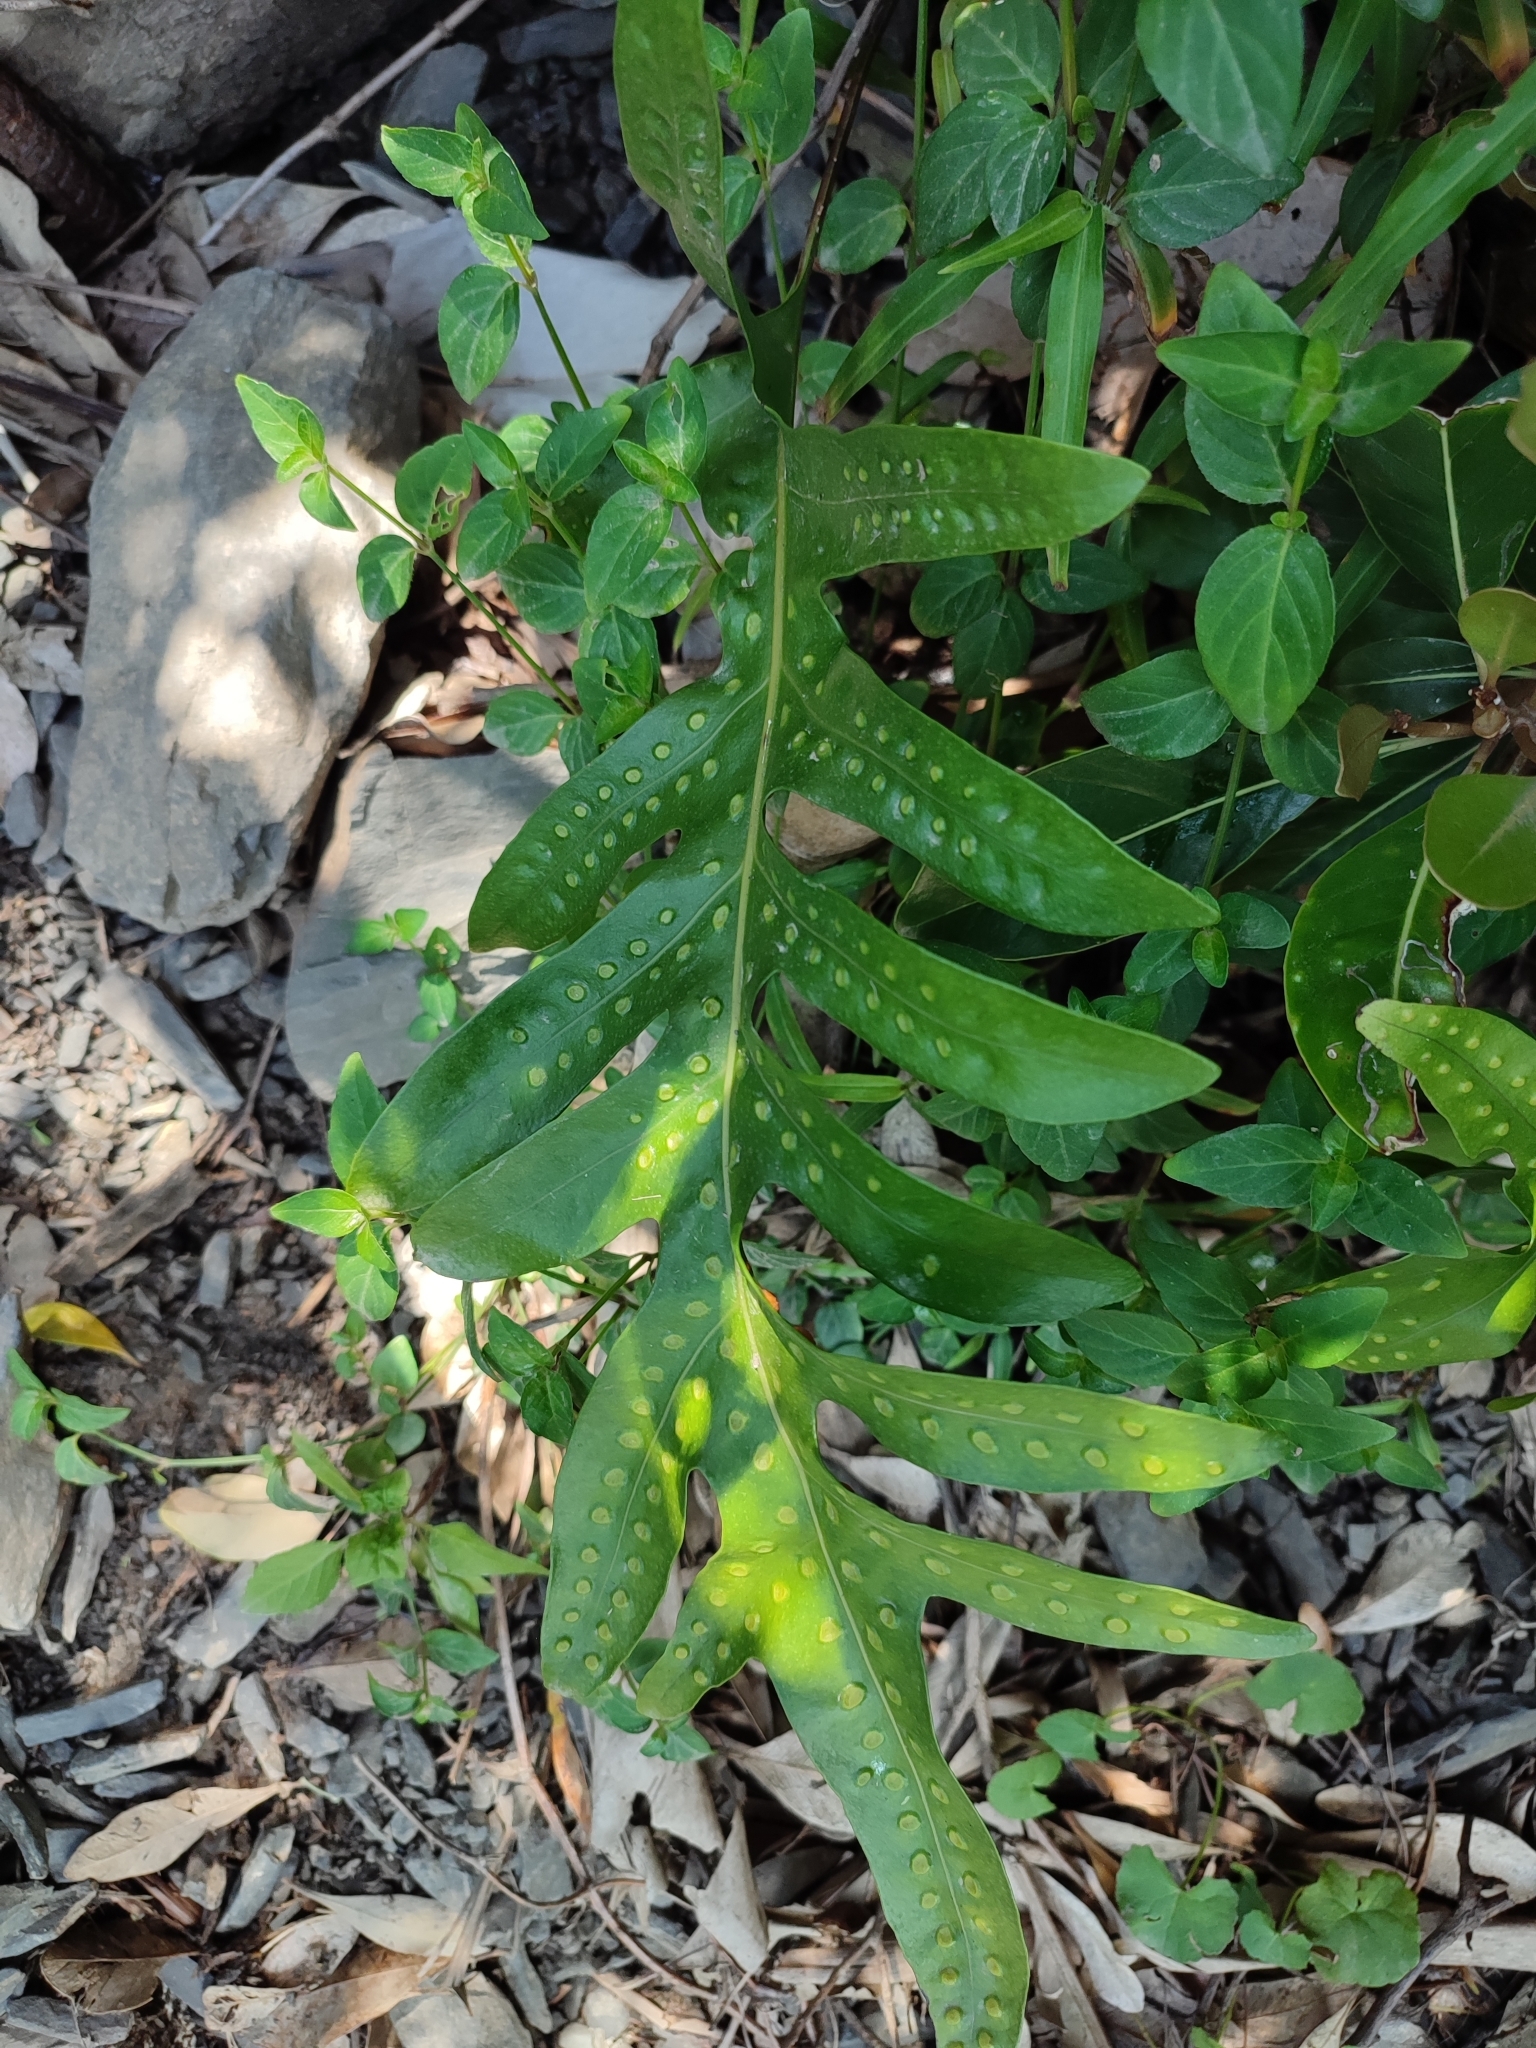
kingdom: Plantae
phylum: Tracheophyta
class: Polypodiopsida
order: Polypodiales
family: Polypodiaceae
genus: Microsorum
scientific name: Microsorum scolopendria
